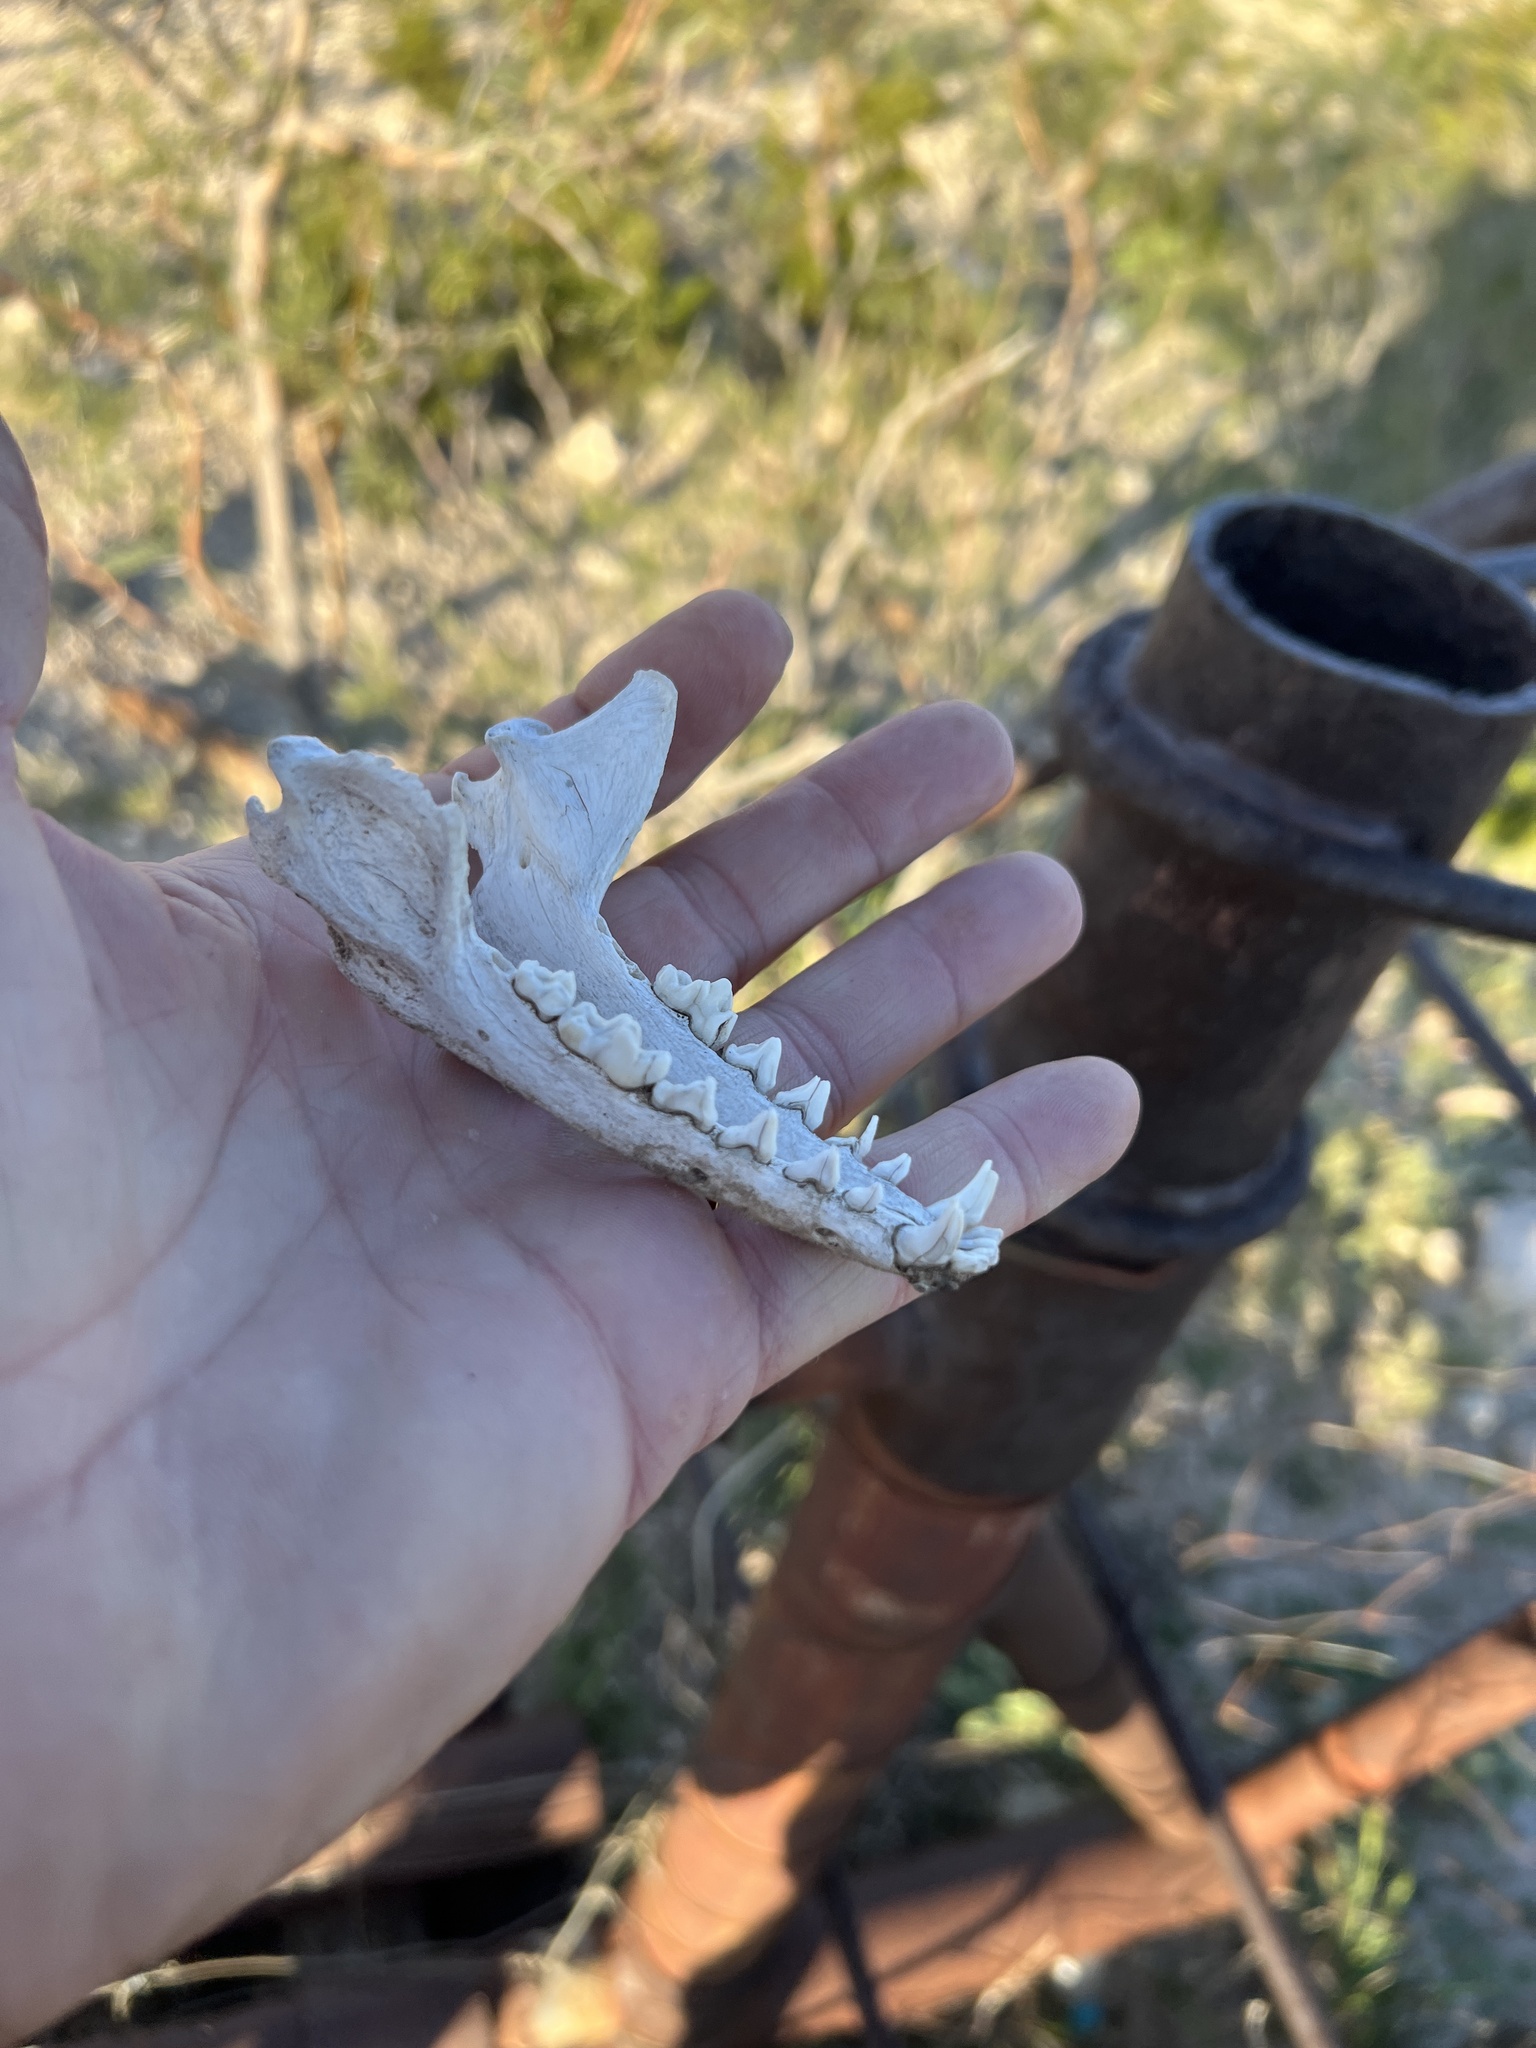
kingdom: Animalia
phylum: Chordata
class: Mammalia
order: Carnivora
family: Canidae
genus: Urocyon
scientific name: Urocyon cinereoargenteus
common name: Gray fox
